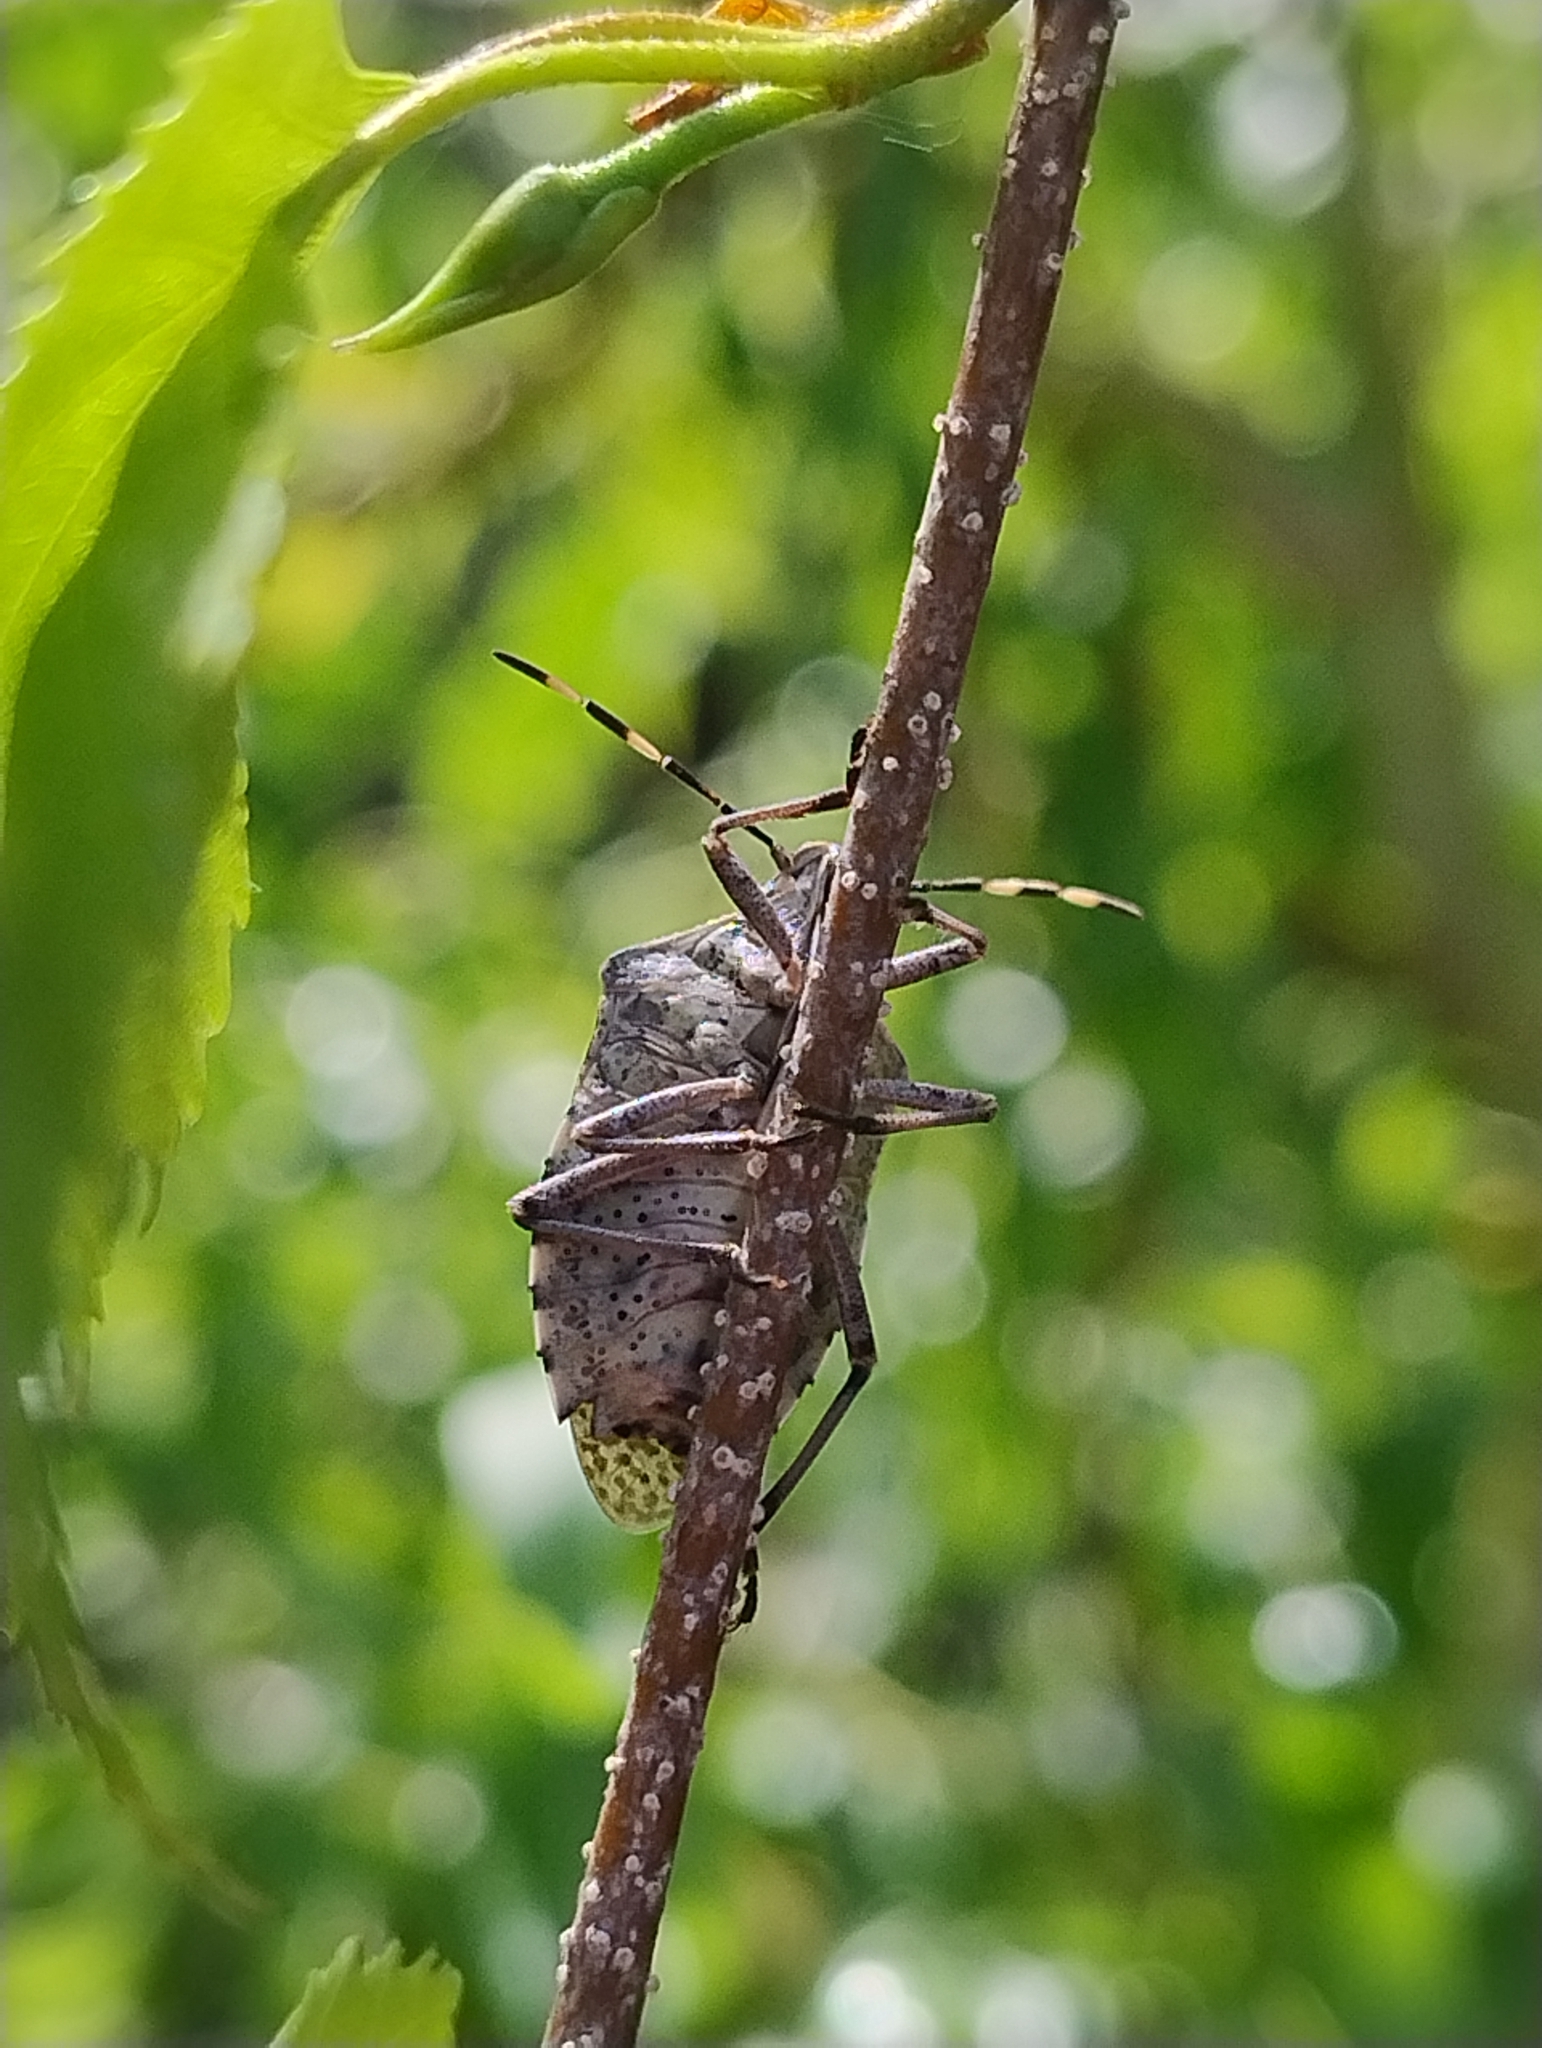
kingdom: Animalia
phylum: Arthropoda
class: Insecta
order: Hemiptera
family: Pentatomidae
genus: Rhaphigaster
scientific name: Rhaphigaster nebulosa
